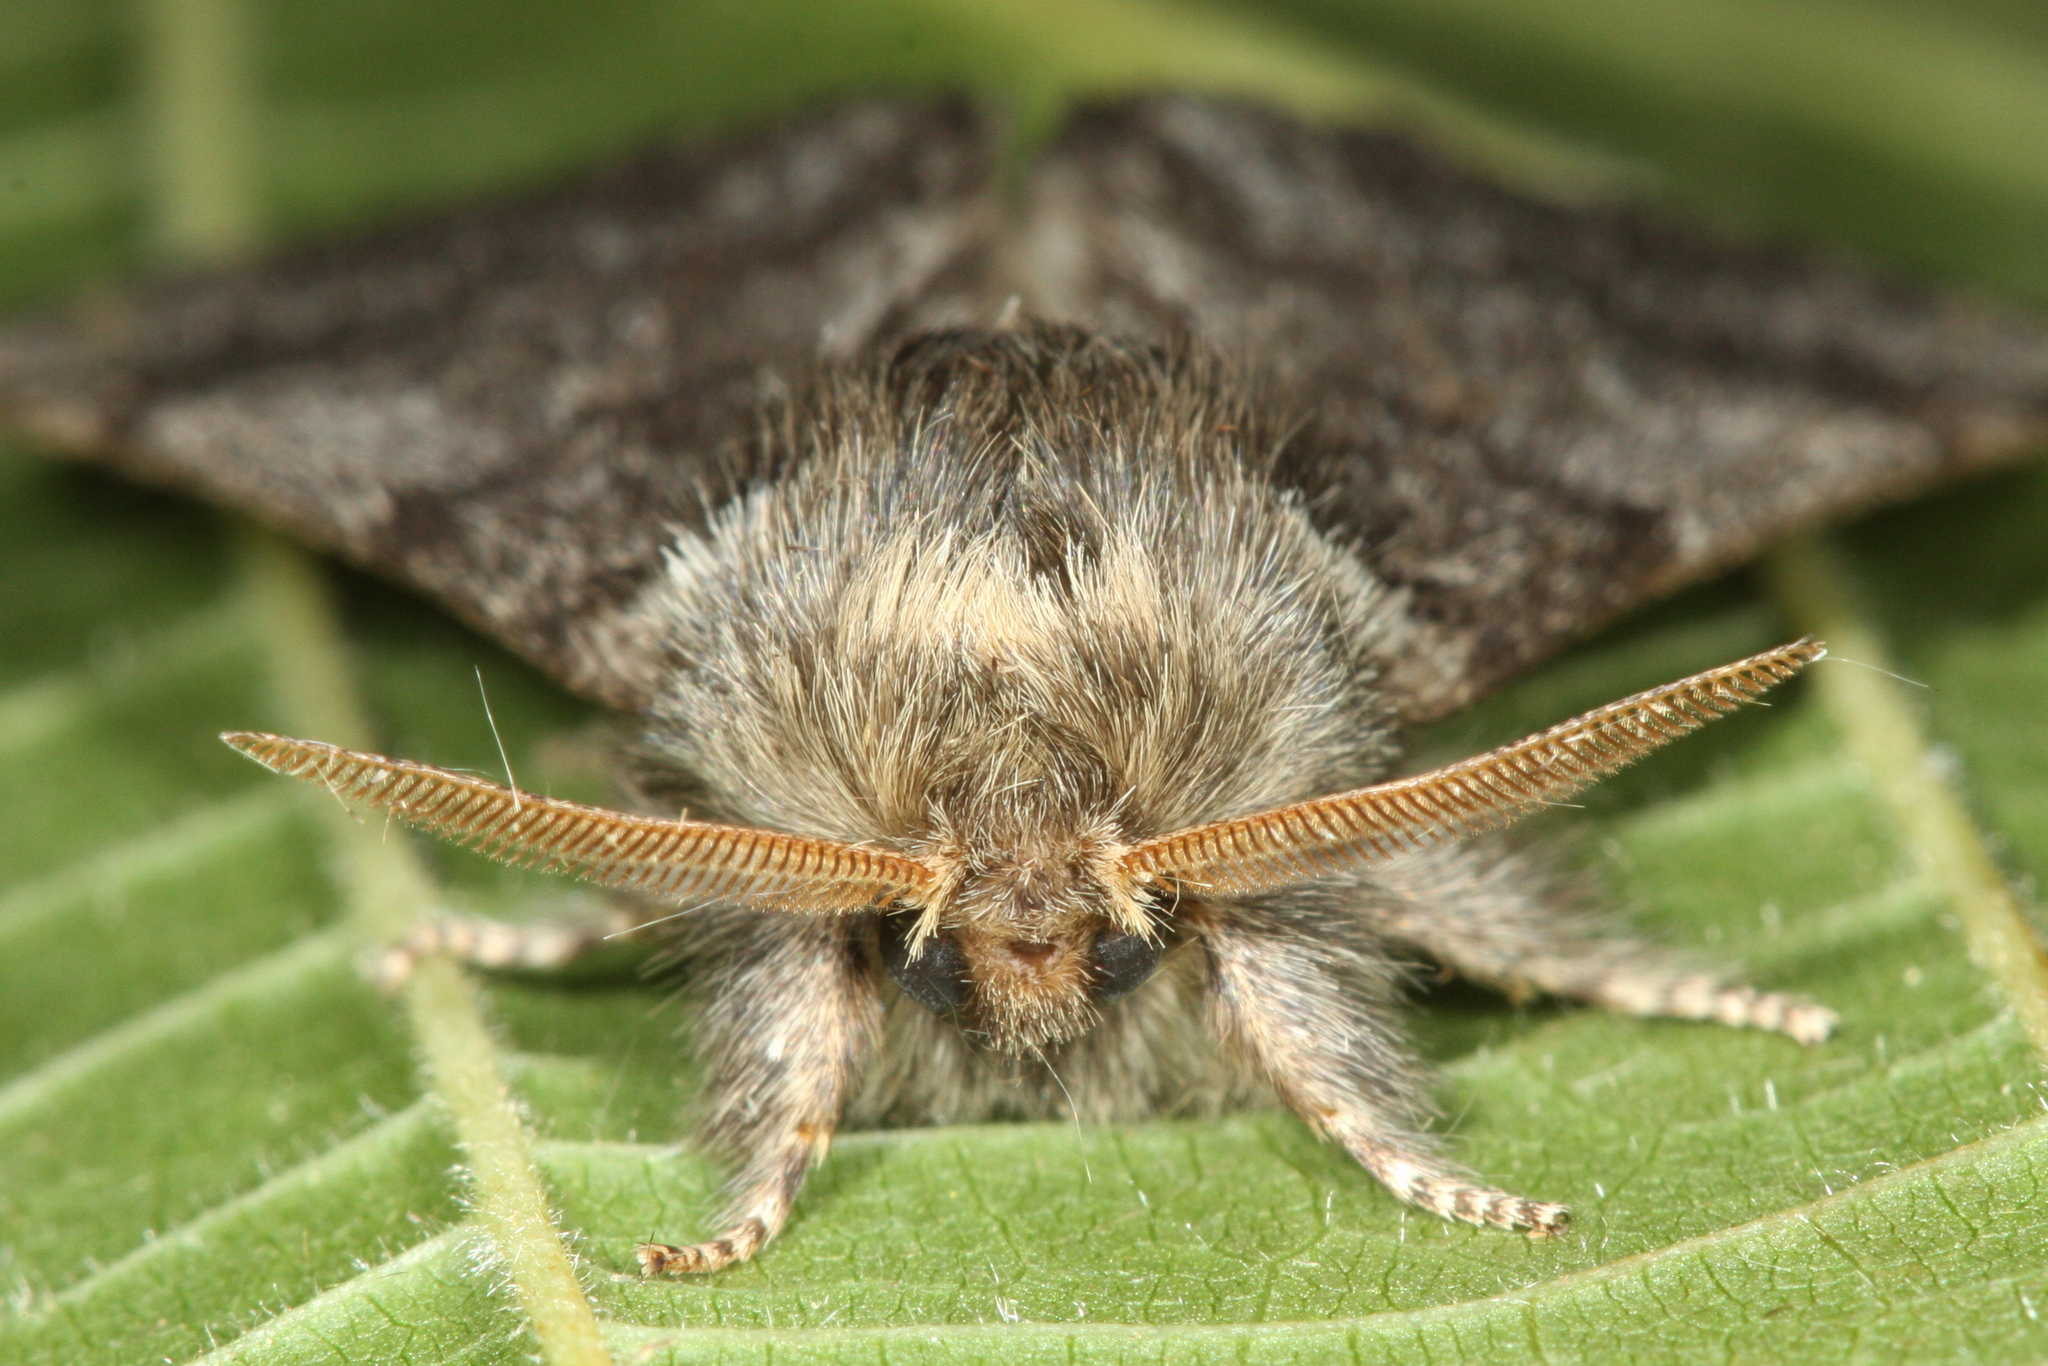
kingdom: Animalia
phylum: Arthropoda
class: Insecta
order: Lepidoptera
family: Notodontidae
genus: Thaumetopoea
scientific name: Thaumetopoea processionea
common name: Oak processionea
